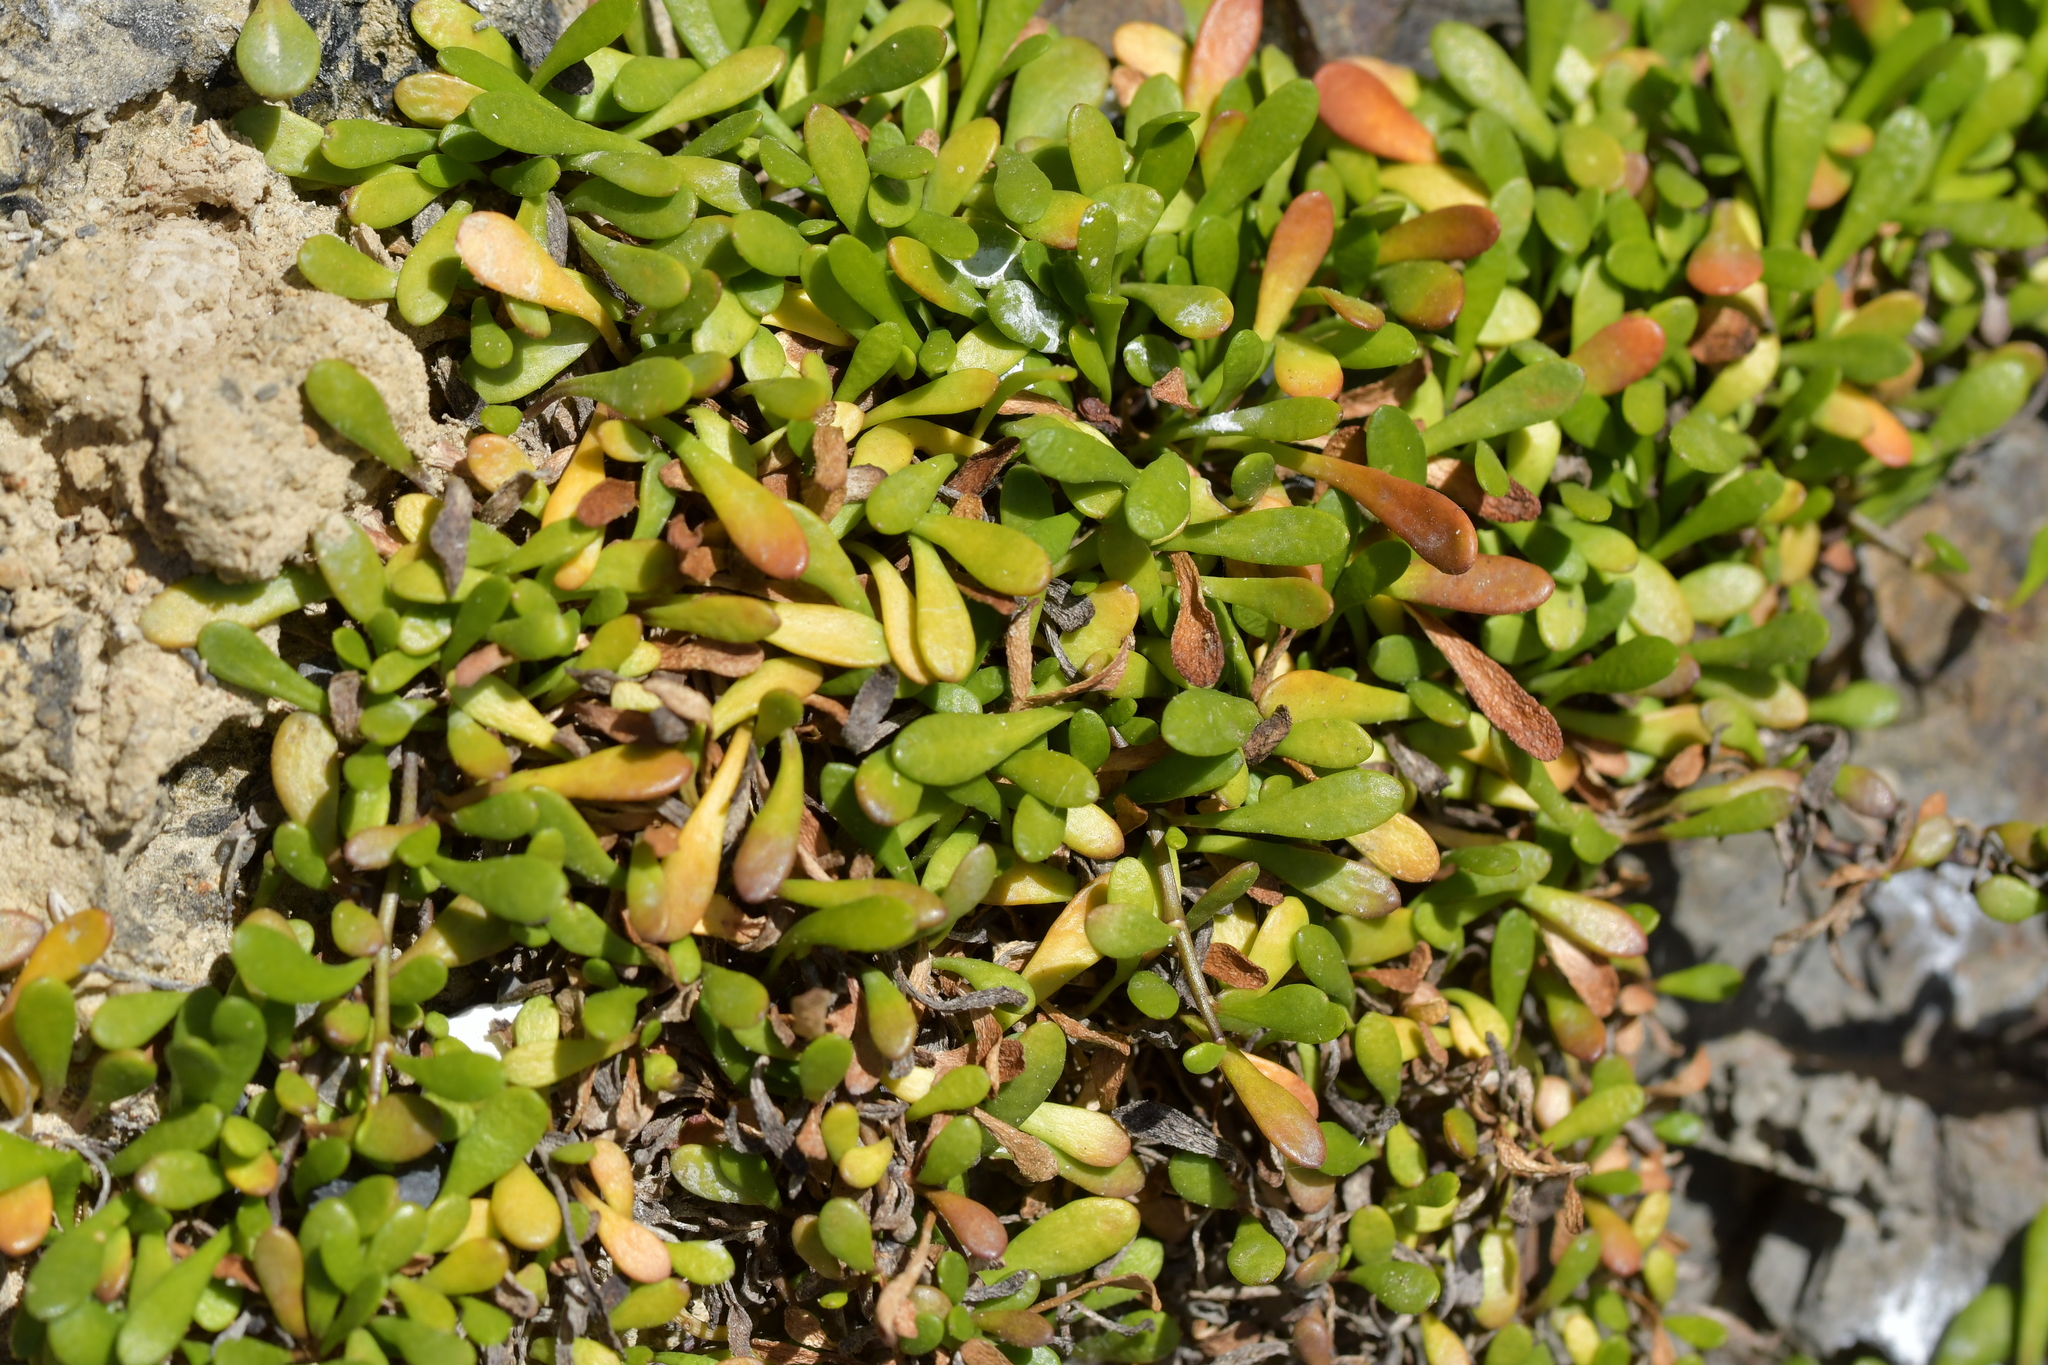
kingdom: Plantae
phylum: Tracheophyta
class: Magnoliopsida
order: Asterales
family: Goodeniaceae
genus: Goodenia
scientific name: Goodenia radicans
